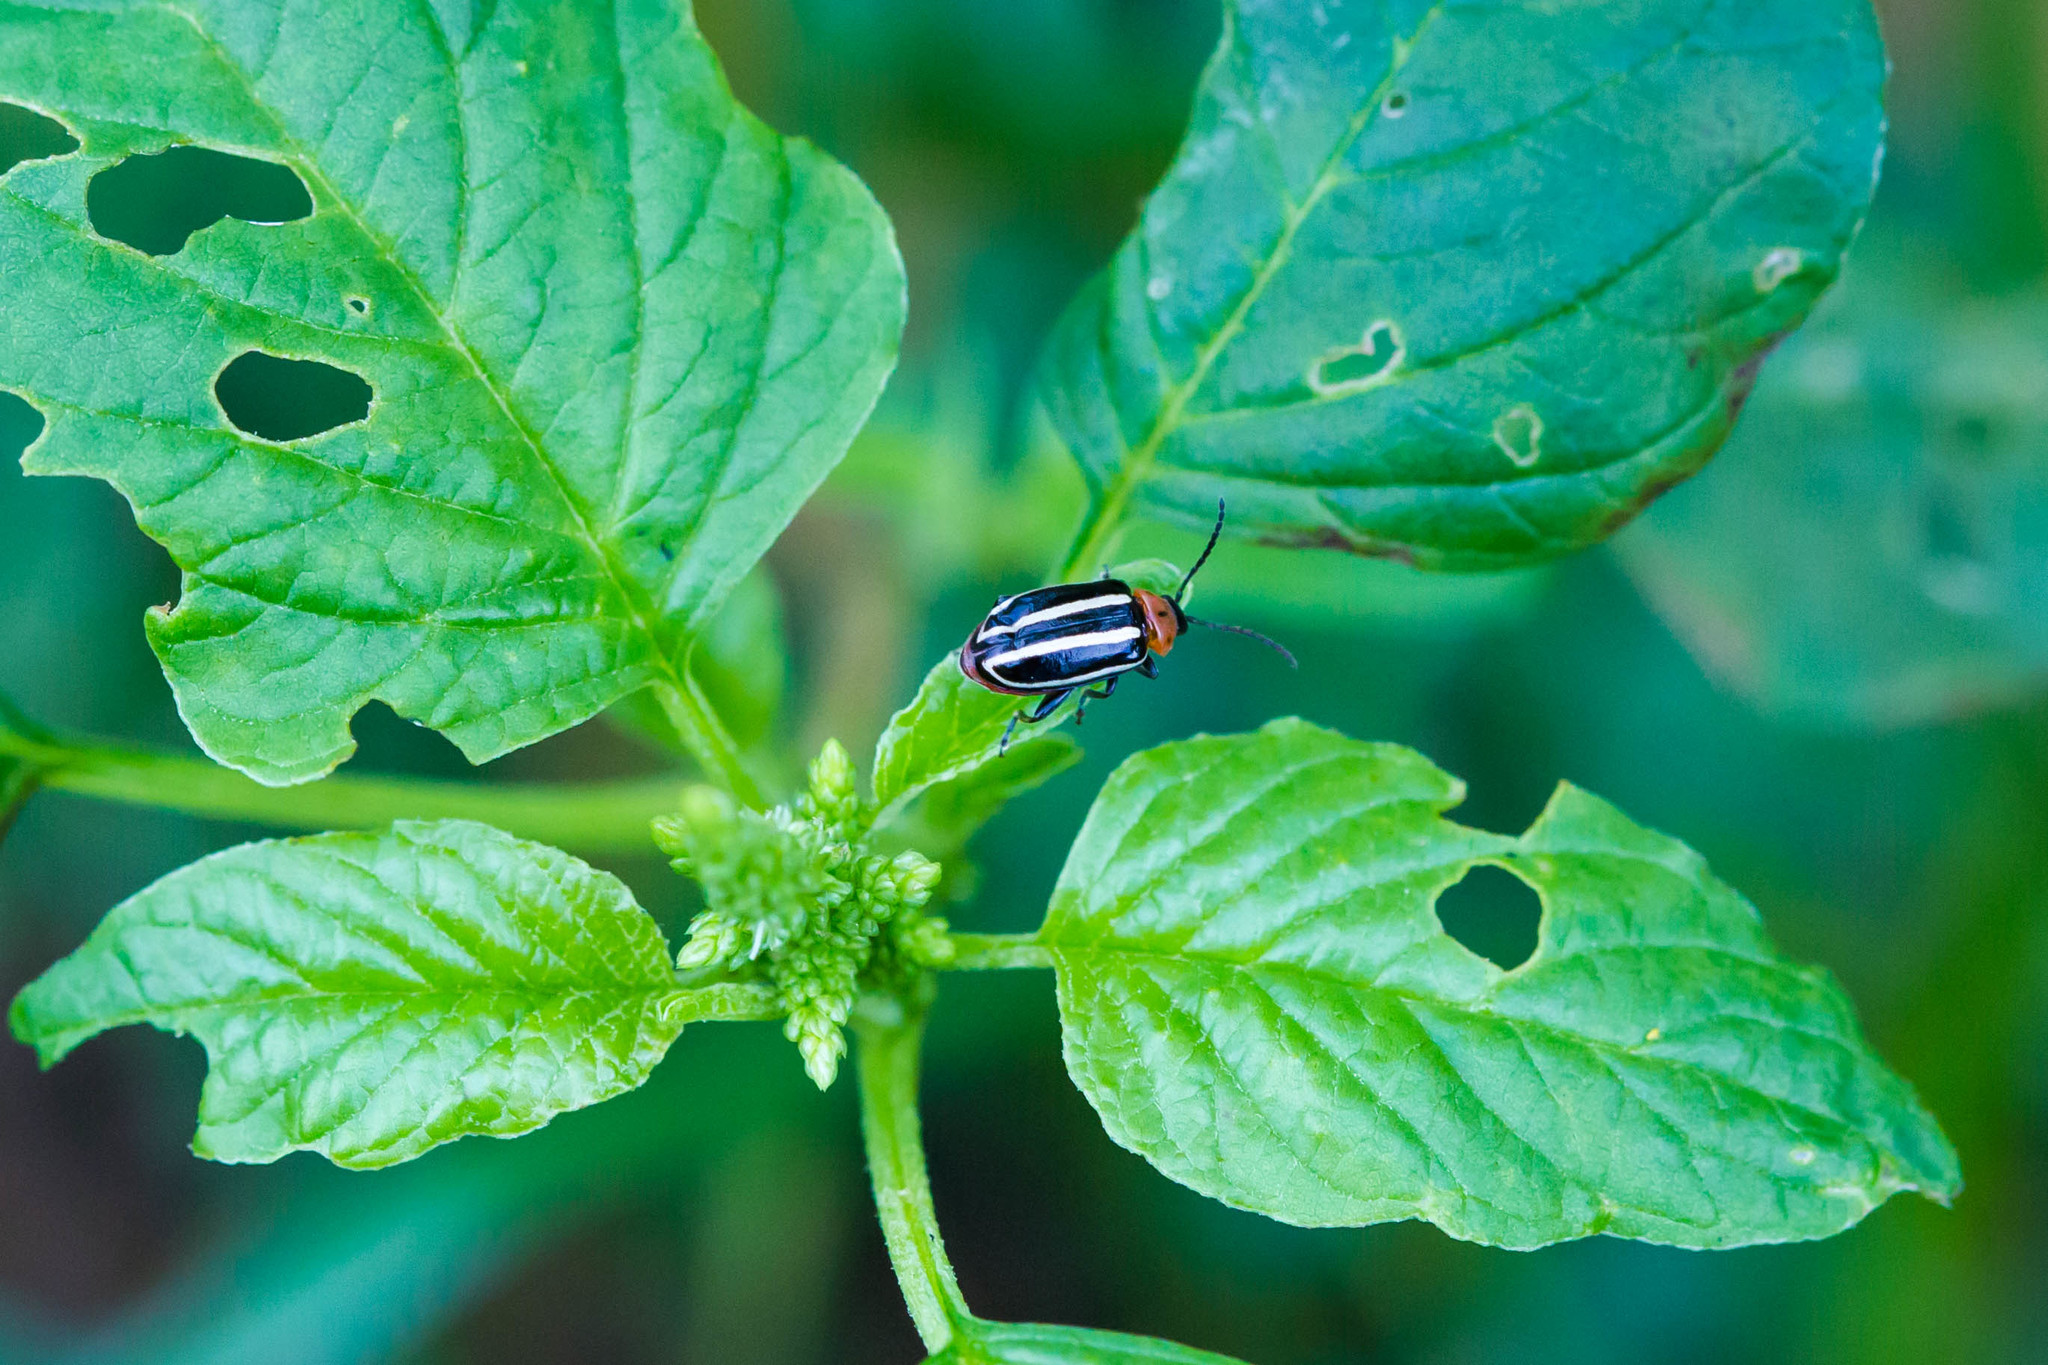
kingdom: Animalia
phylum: Arthropoda
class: Insecta
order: Coleoptera
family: Chrysomelidae
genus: Disonycha
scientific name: Disonycha glabrata
